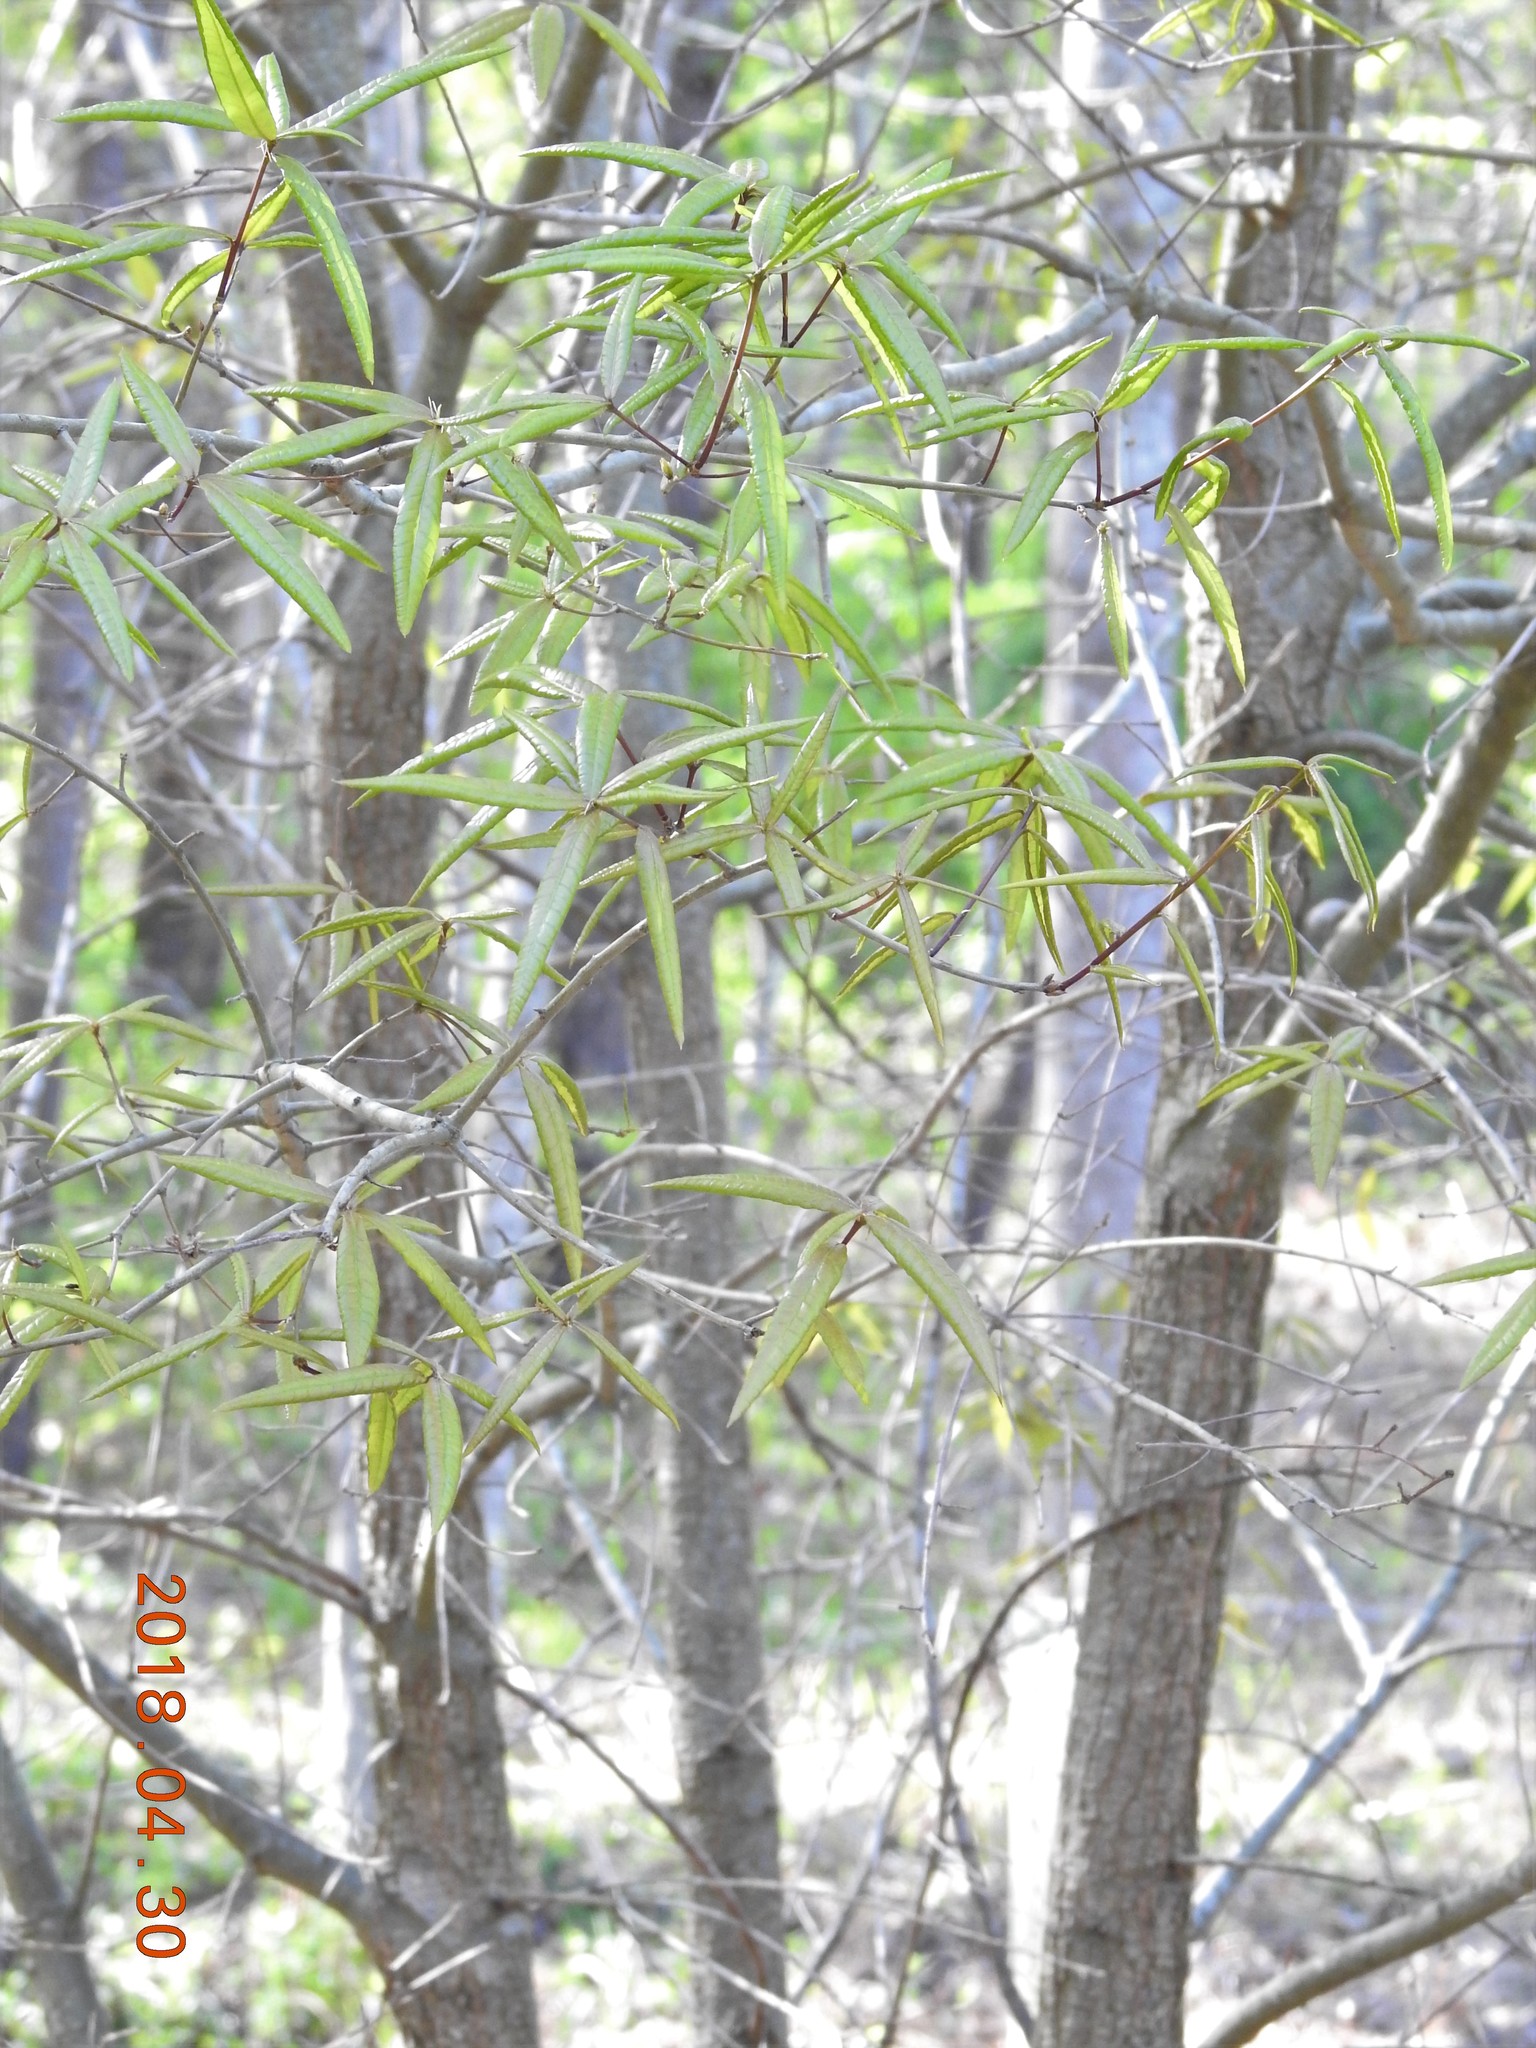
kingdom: Plantae
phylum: Tracheophyta
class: Magnoliopsida
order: Fagales
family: Fagaceae
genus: Quercus
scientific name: Quercus phellos
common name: Willow oak
